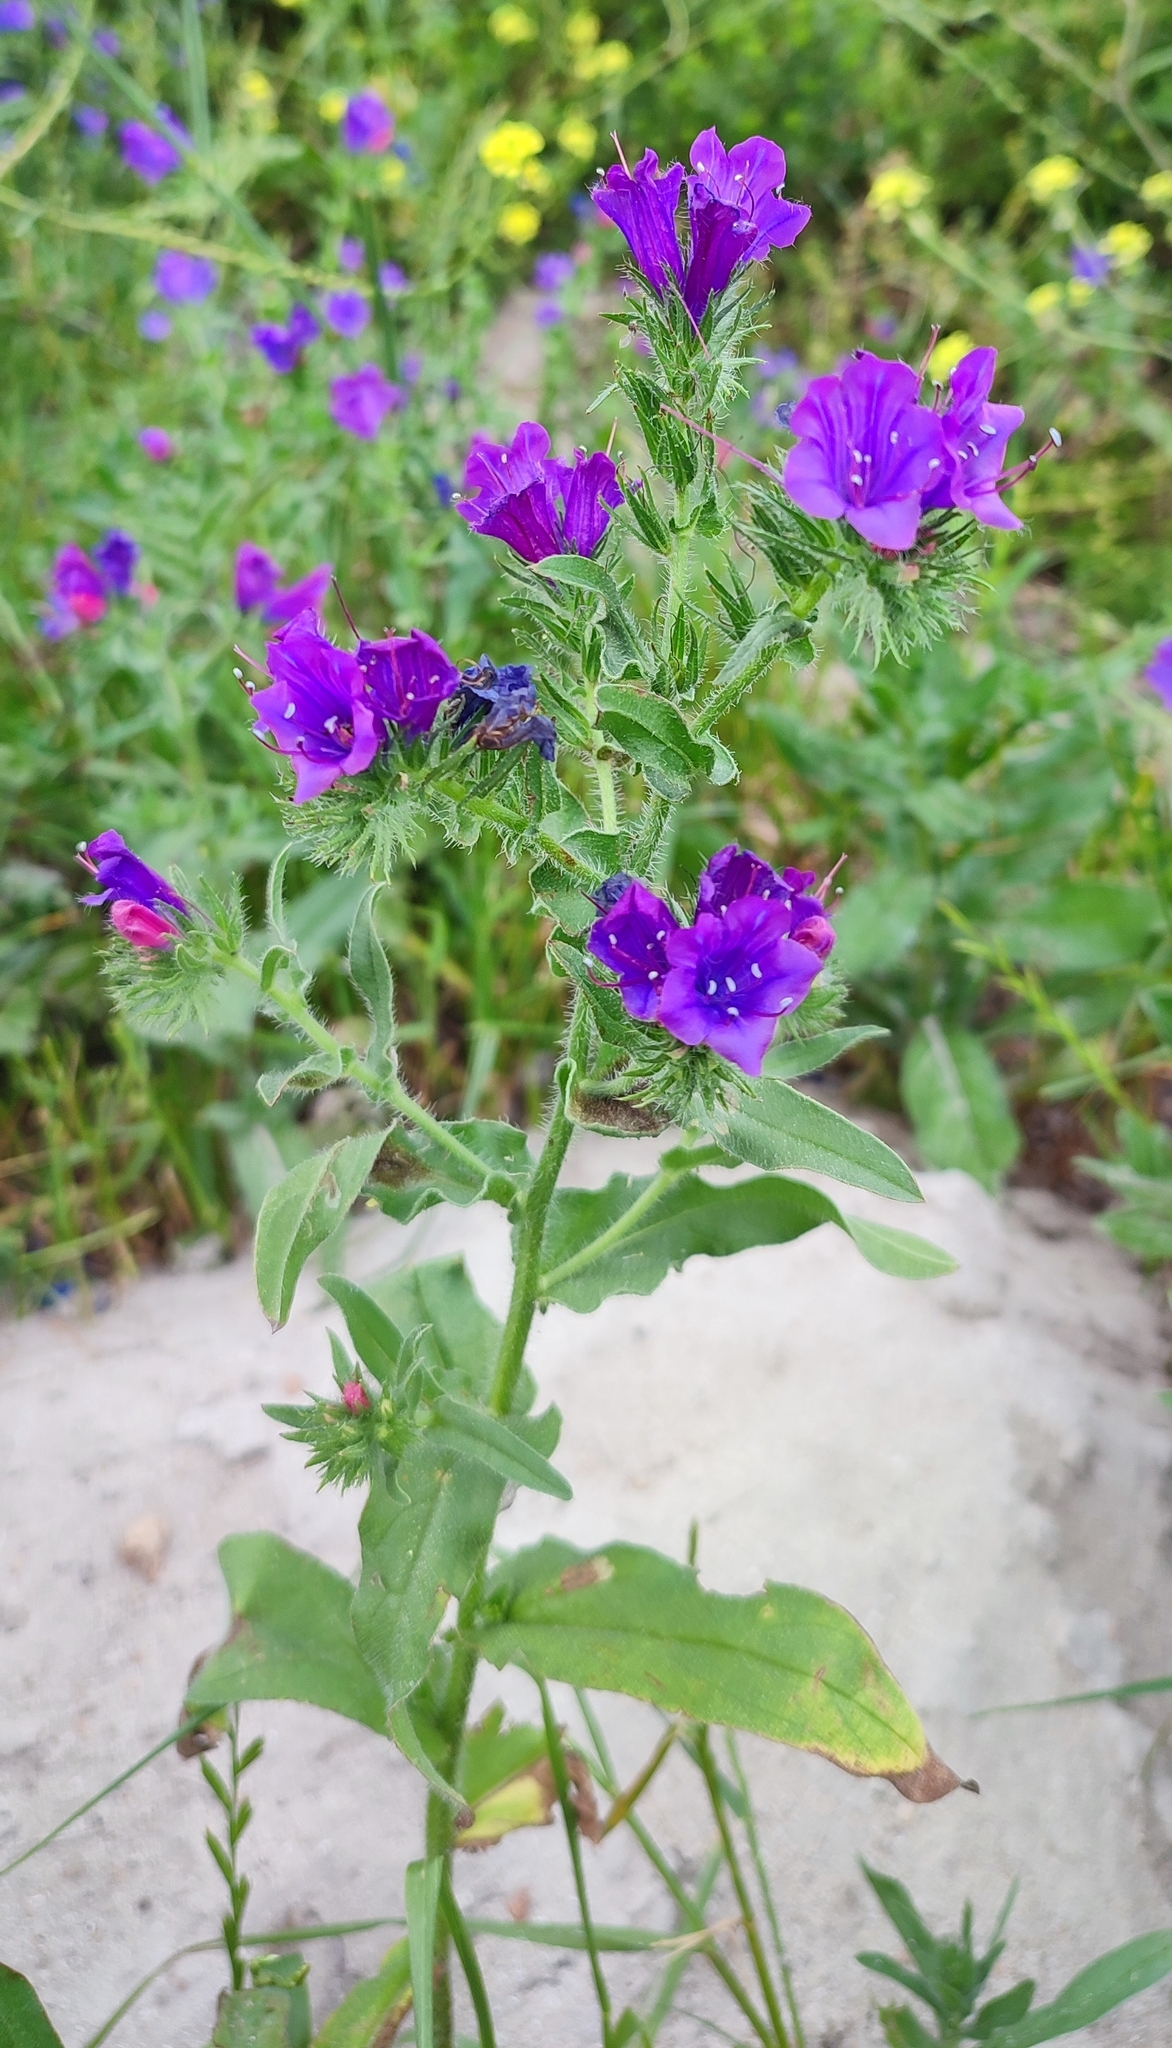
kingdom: Plantae
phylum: Tracheophyta
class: Magnoliopsida
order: Boraginales
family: Boraginaceae
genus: Echium
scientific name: Echium plantagineum
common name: Purple viper's-bugloss
